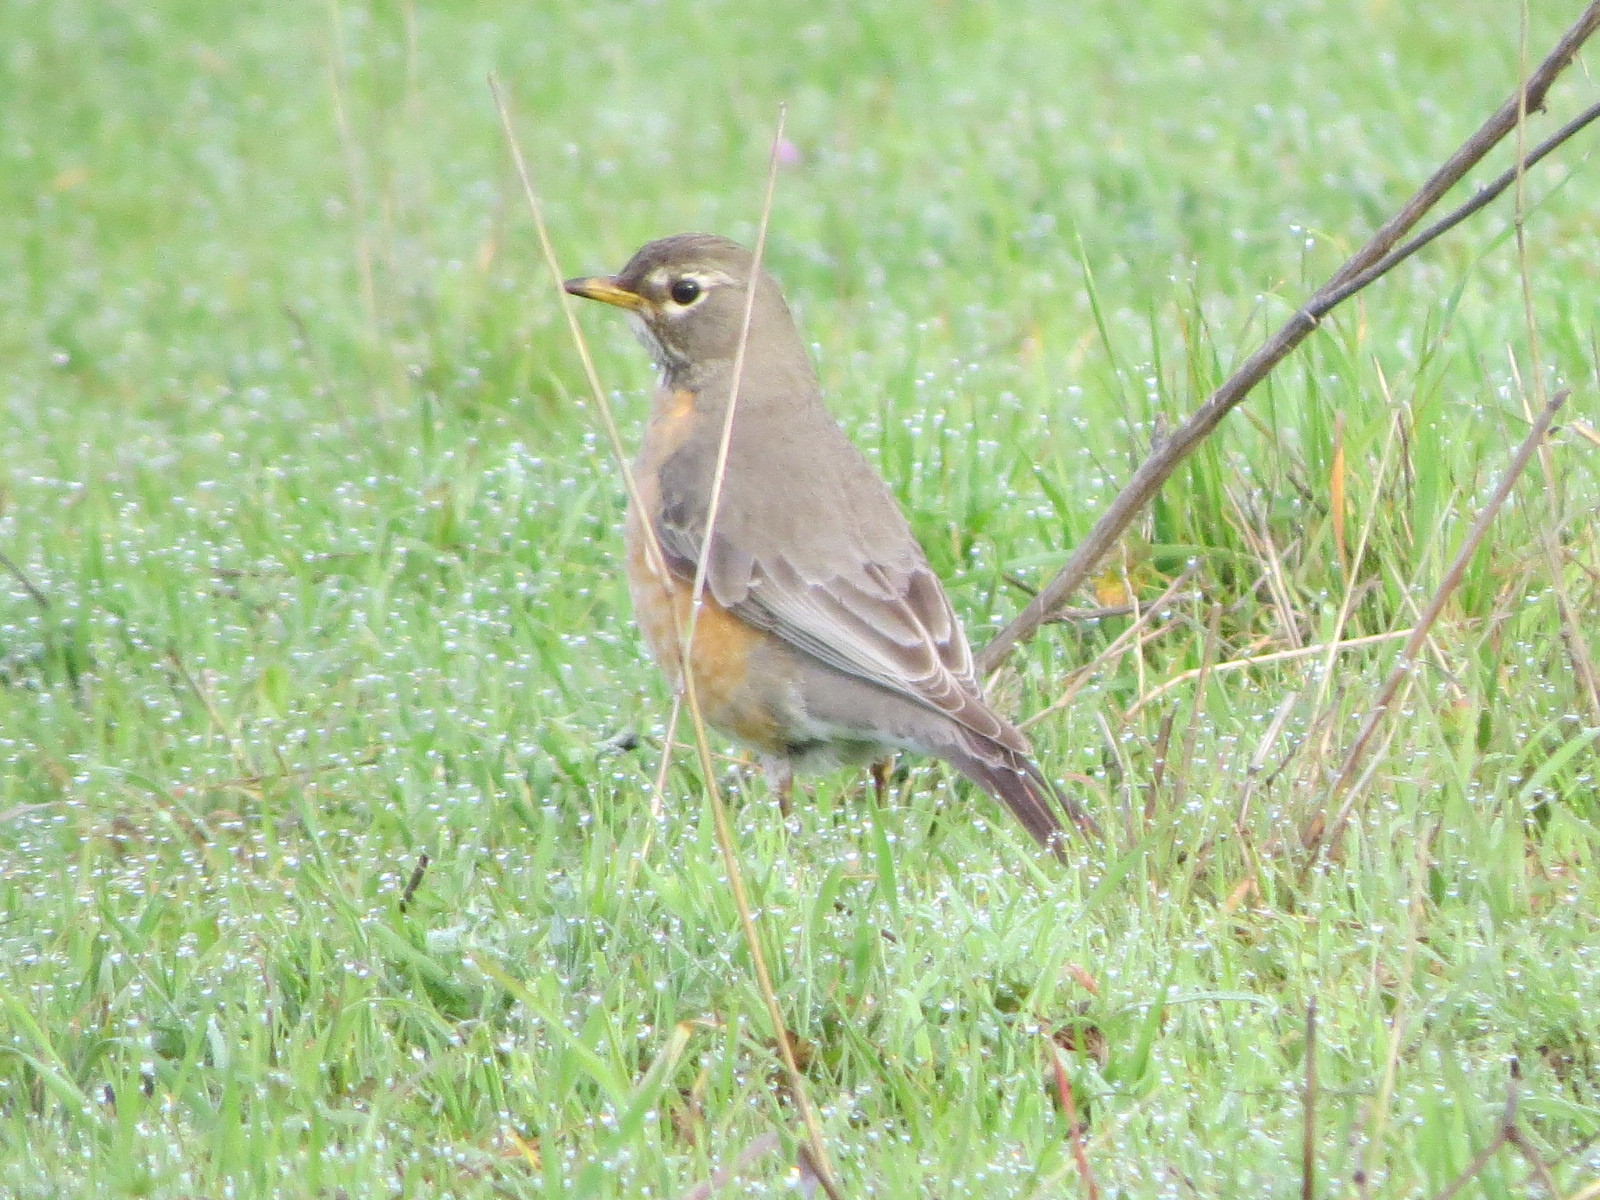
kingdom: Animalia
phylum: Chordata
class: Aves
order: Passeriformes
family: Turdidae
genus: Turdus
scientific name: Turdus migratorius
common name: American robin
